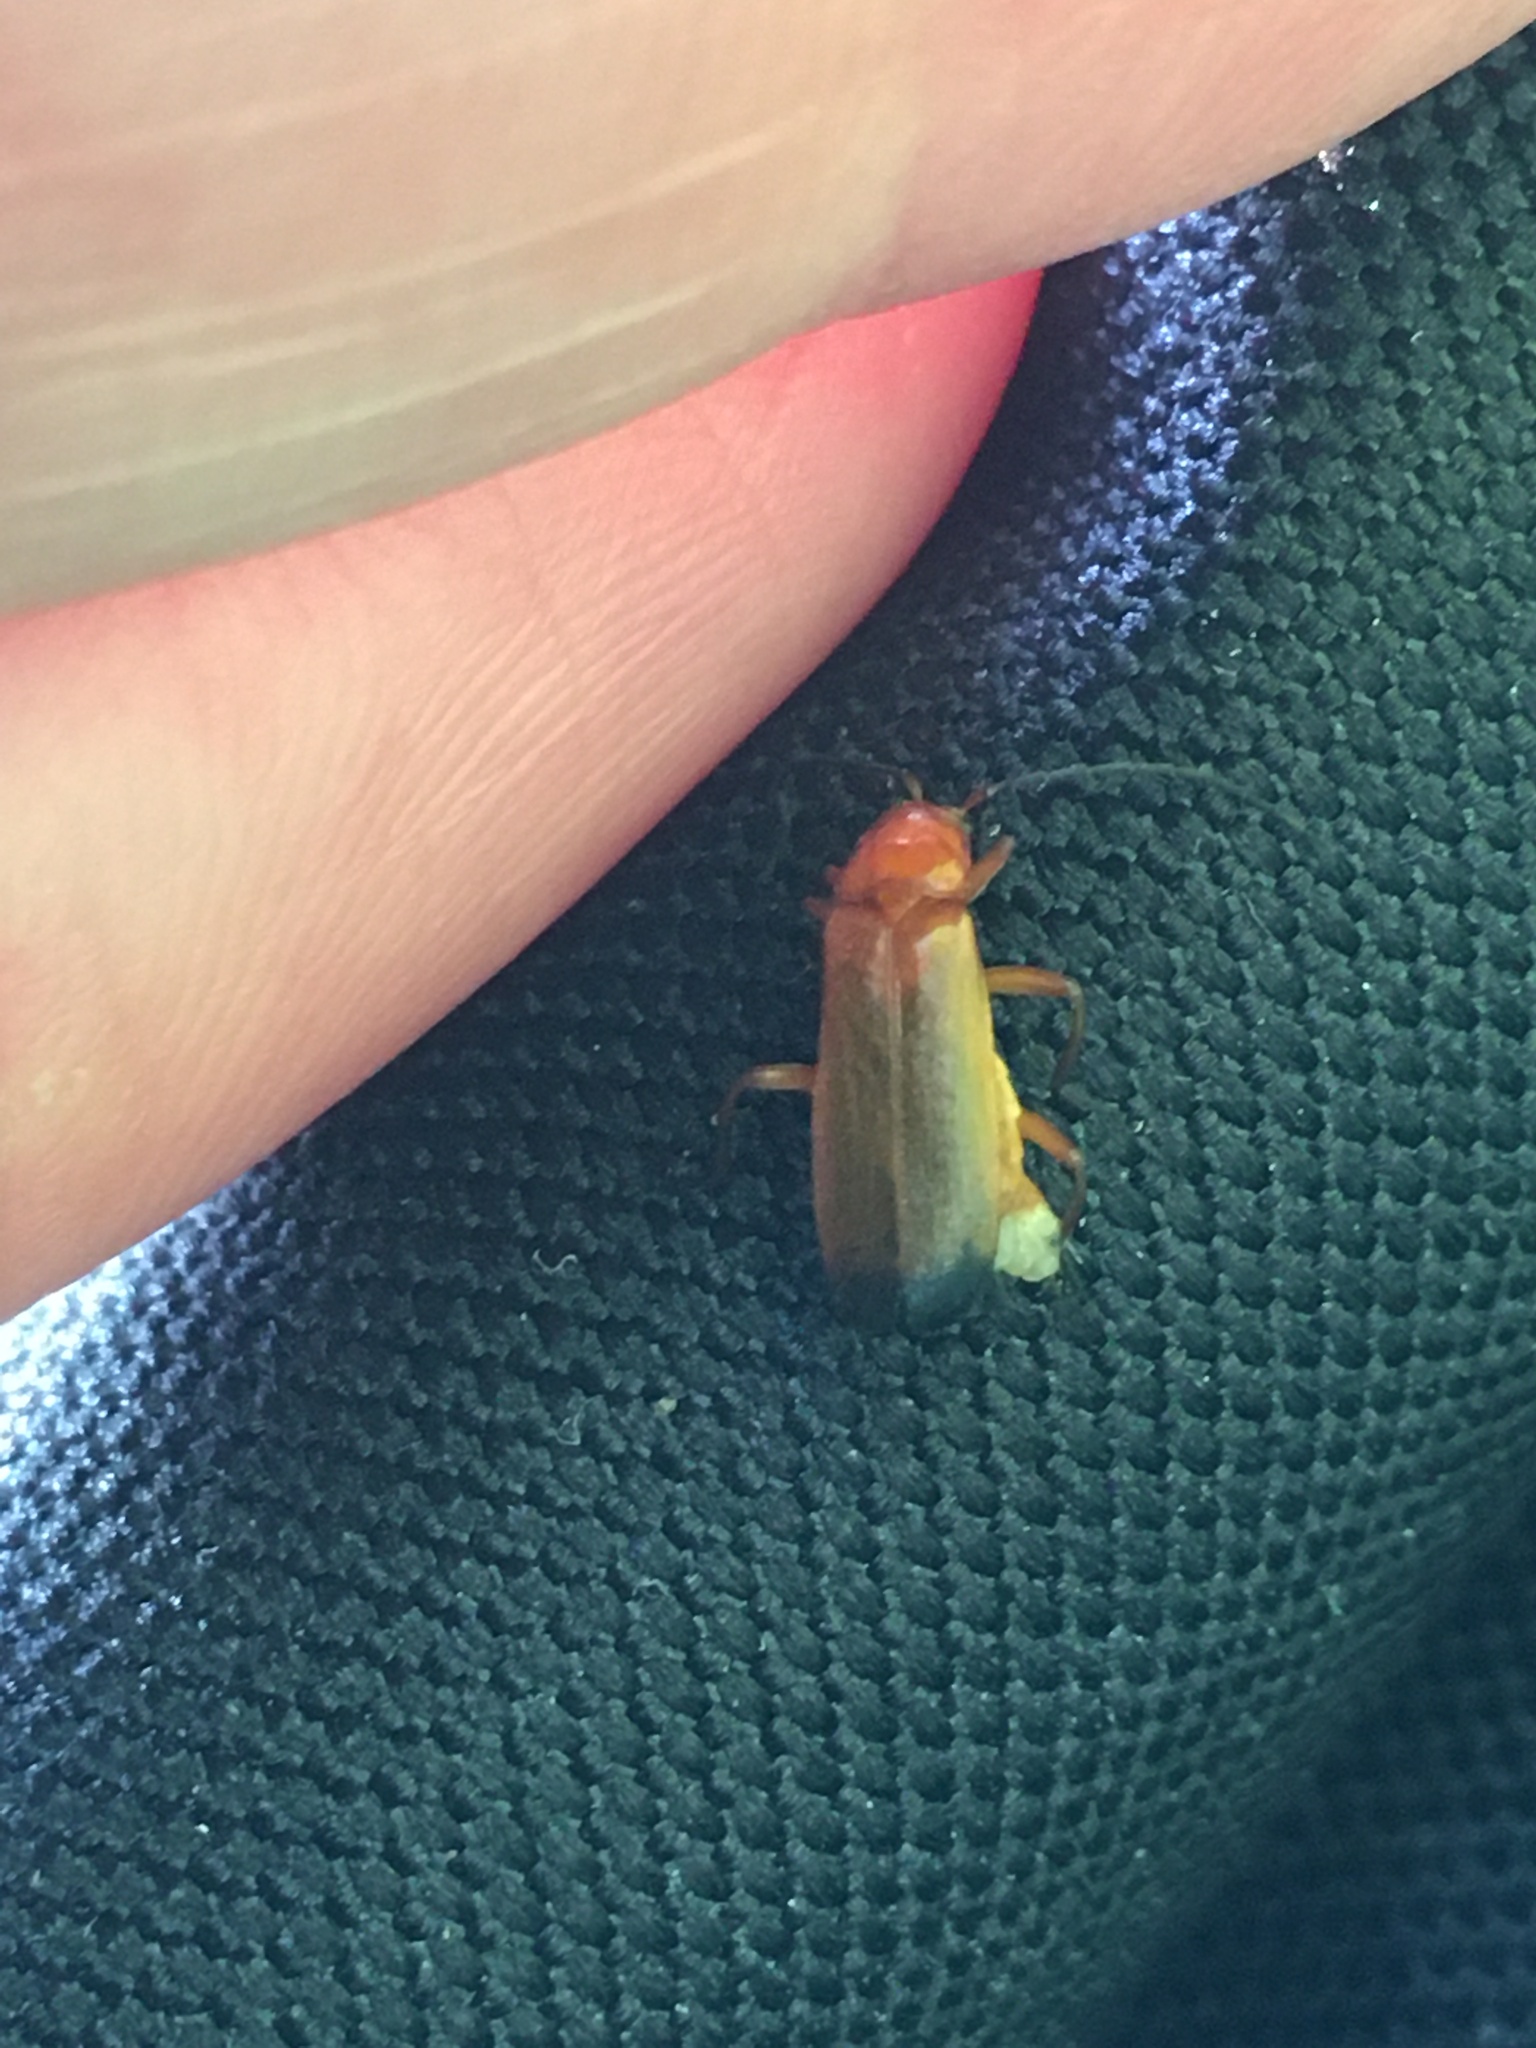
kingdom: Animalia
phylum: Arthropoda
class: Insecta
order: Coleoptera
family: Cantharidae
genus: Rhagonycha
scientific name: Rhagonycha fulva
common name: Common red soldier beetle
